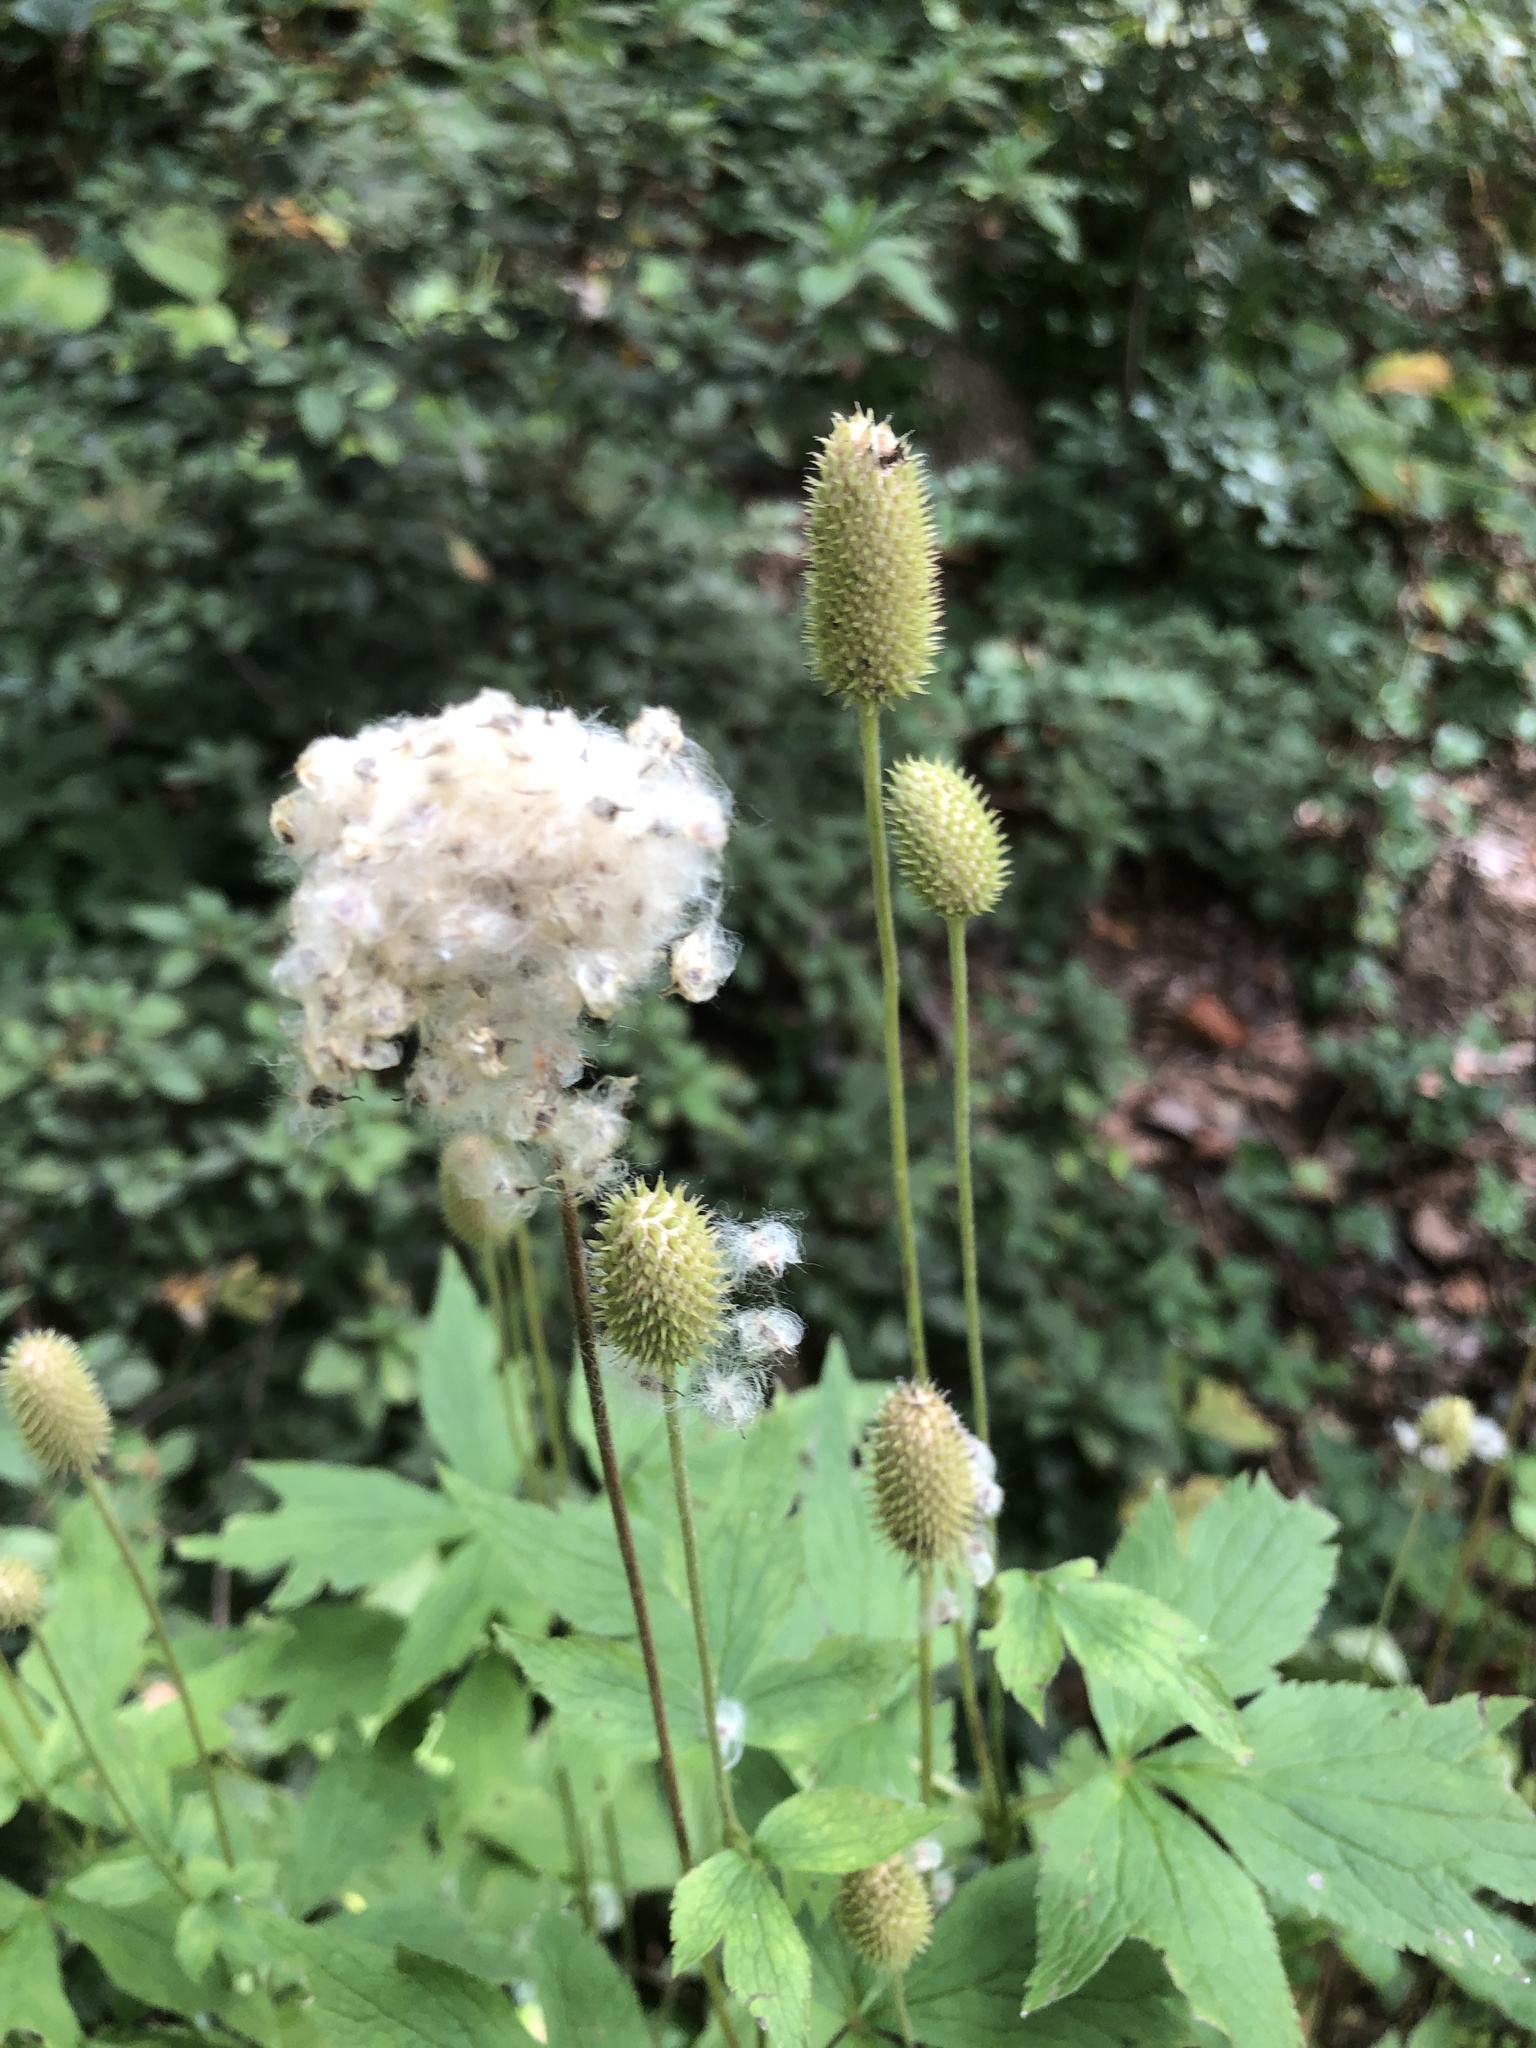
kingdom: Plantae
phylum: Tracheophyta
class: Magnoliopsida
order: Ranunculales
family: Ranunculaceae
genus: Anemone
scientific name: Anemone virginiana
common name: Tall anemone
